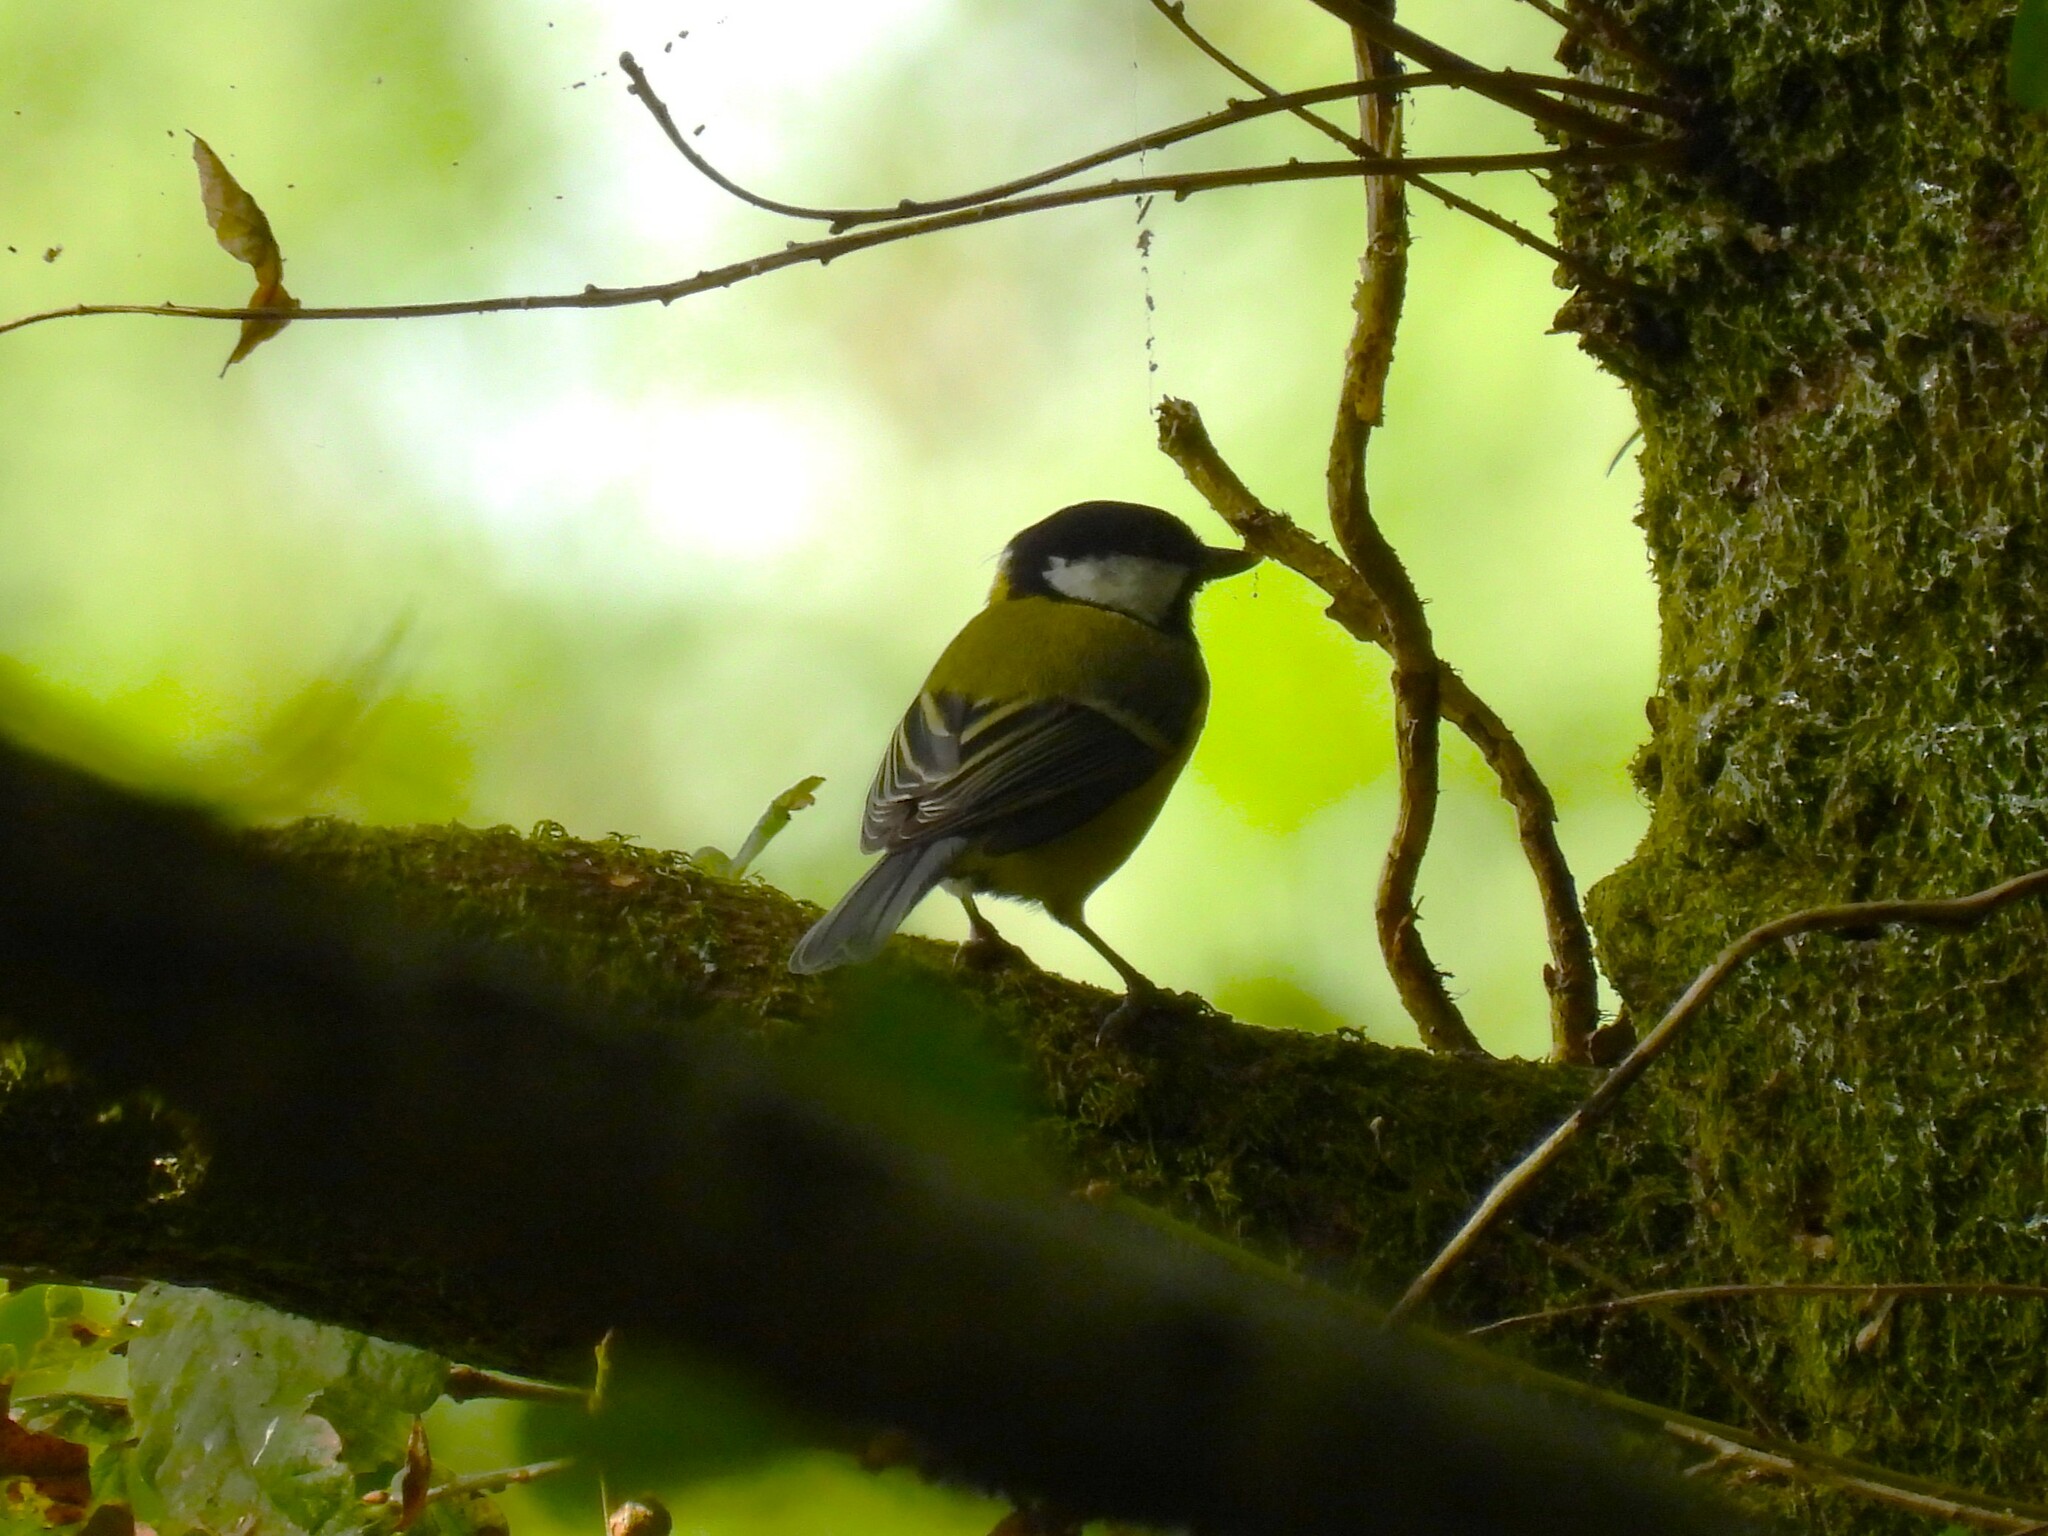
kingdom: Animalia
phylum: Chordata
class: Aves
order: Passeriformes
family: Paridae
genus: Parus
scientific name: Parus major
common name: Great tit
